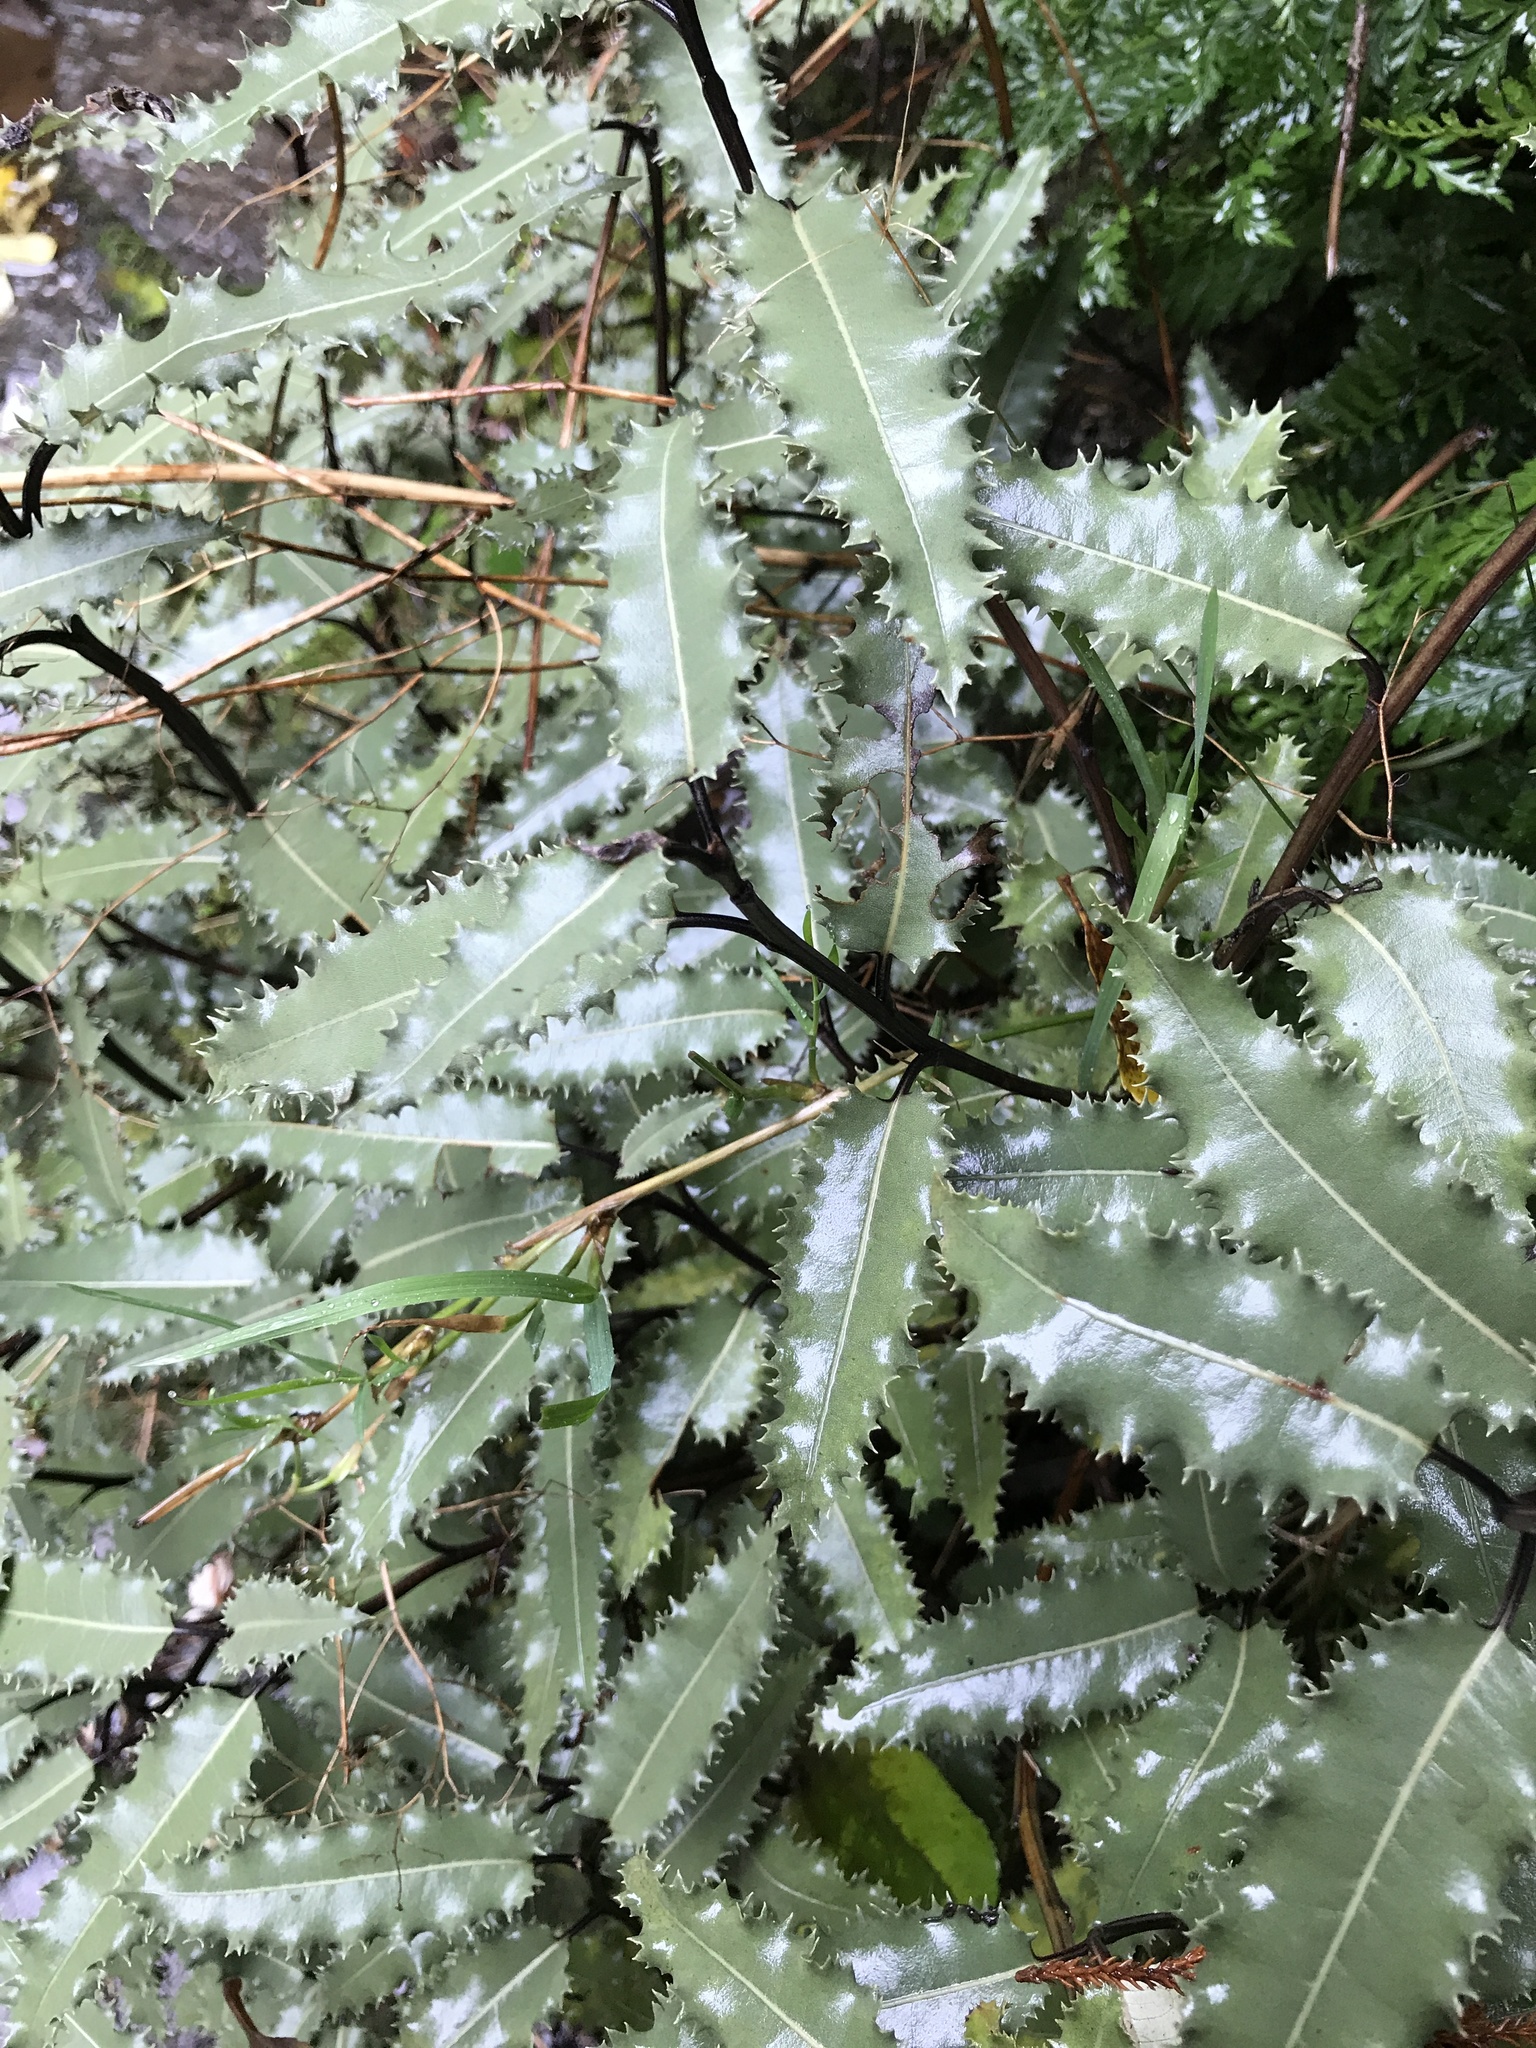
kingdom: Plantae
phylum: Tracheophyta
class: Magnoliopsida
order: Asterales
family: Asteraceae
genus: Olearia
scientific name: Olearia ilicifolia
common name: Maori-holly
